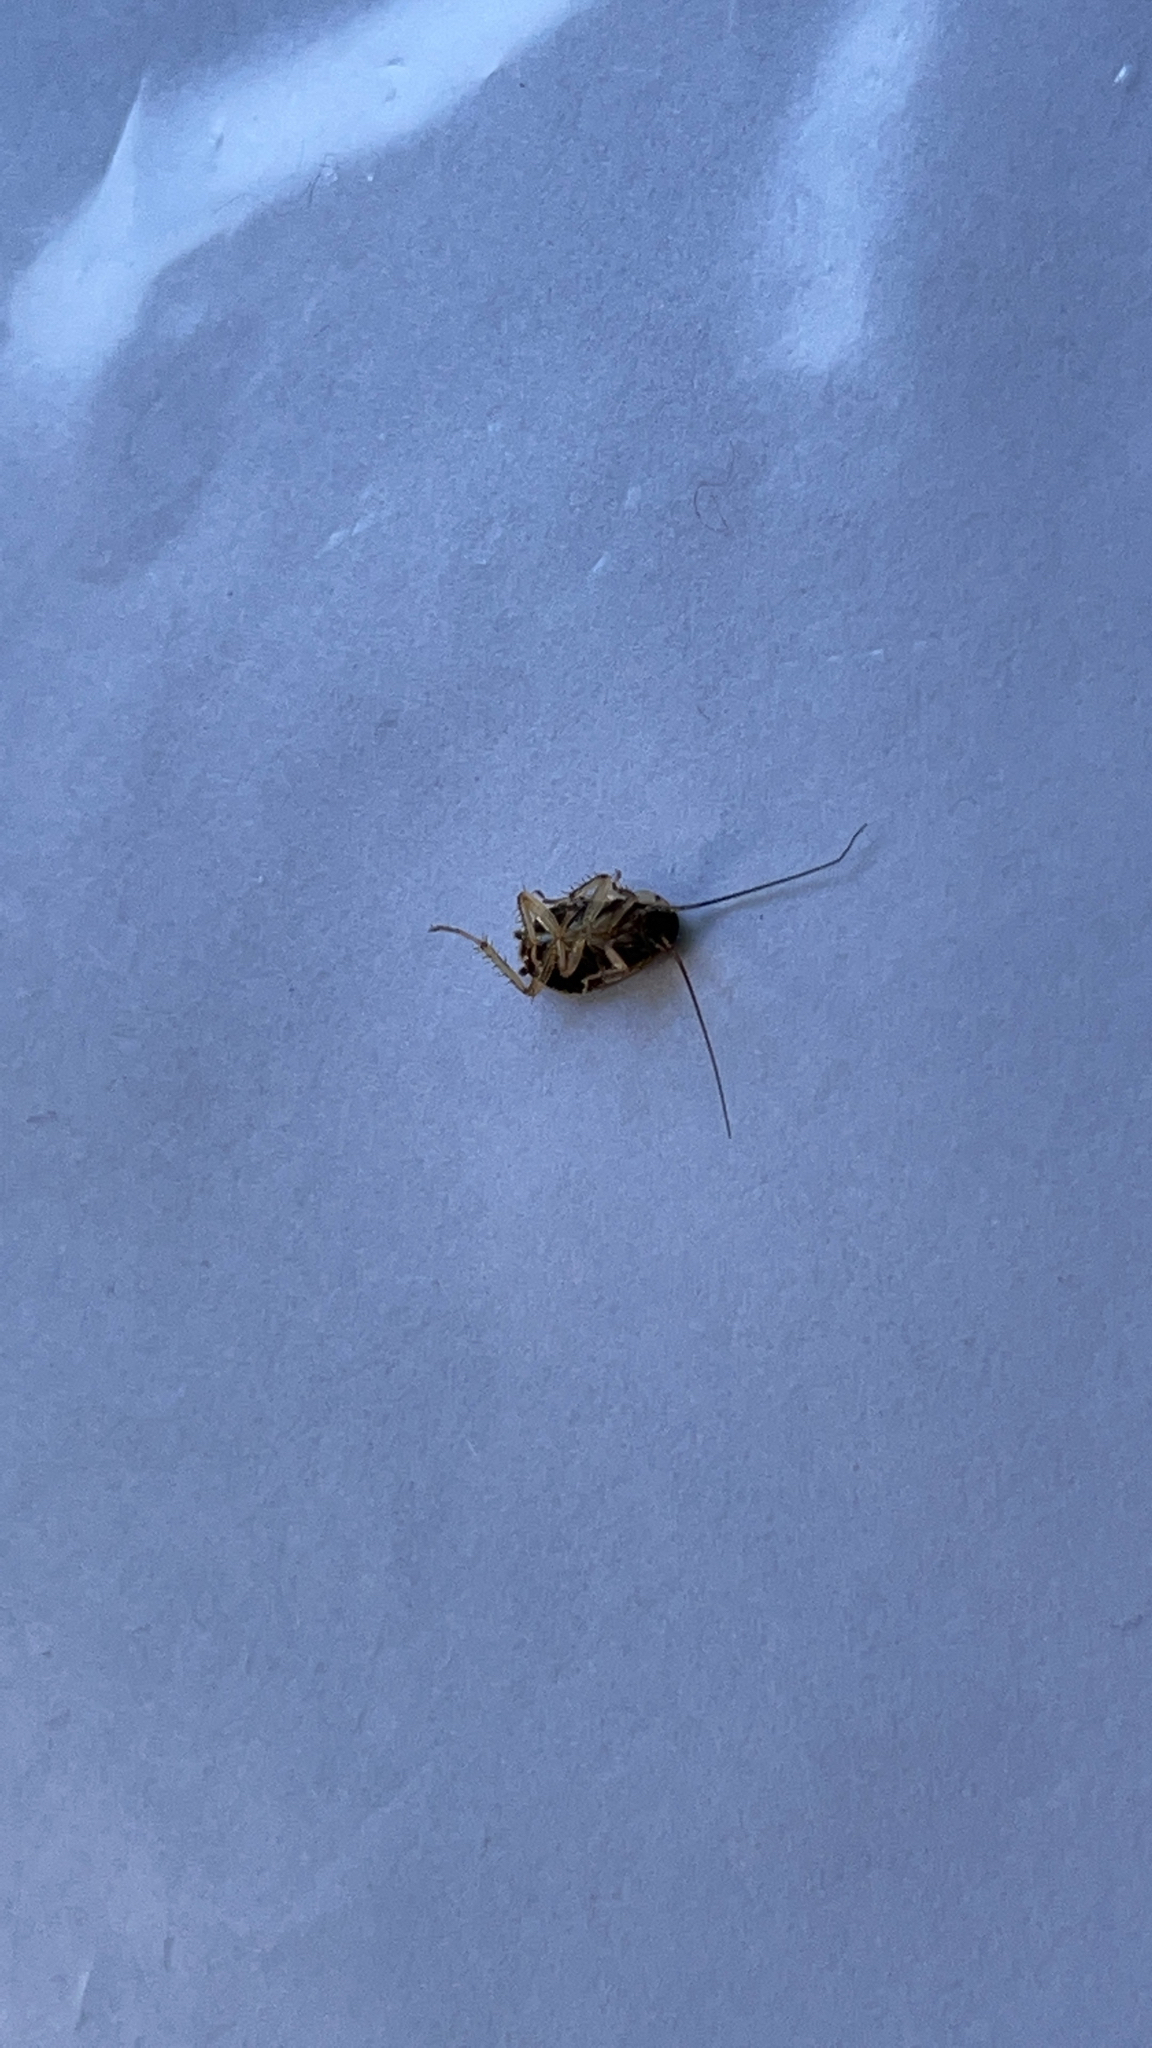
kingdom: Animalia
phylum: Arthropoda
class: Insecta
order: Blattodea
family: Ectobiidae
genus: Blattella
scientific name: Blattella germanica
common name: German cockroach
